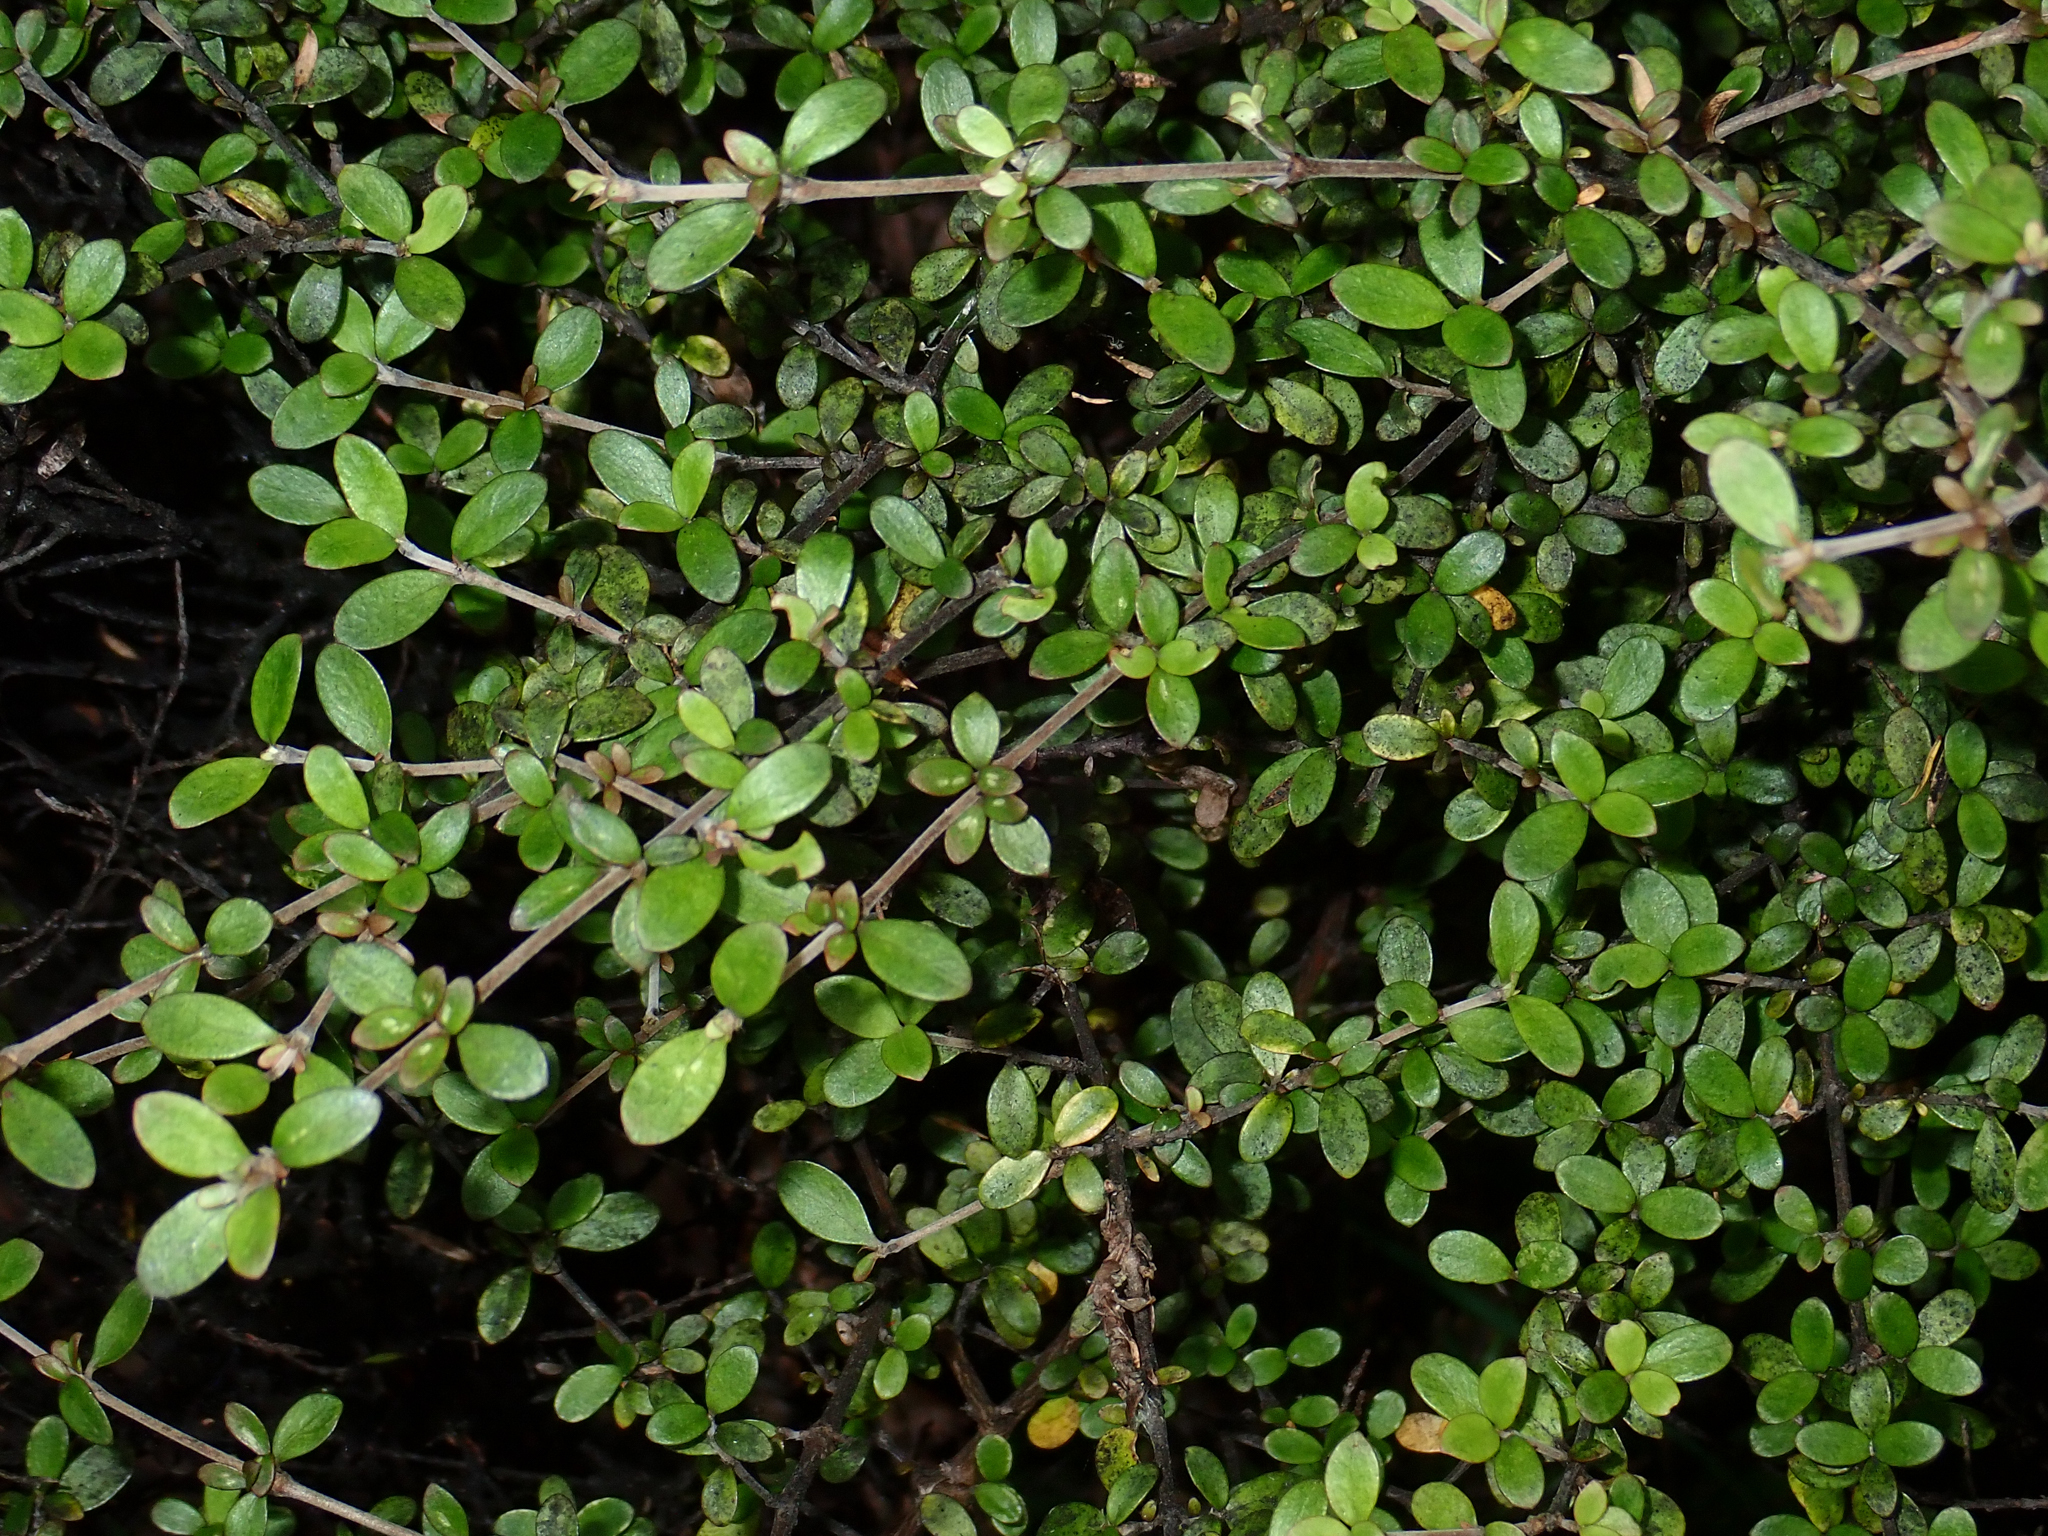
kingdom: Plantae
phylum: Tracheophyta
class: Magnoliopsida
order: Gentianales
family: Rubiaceae
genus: Coprosma
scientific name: Coprosma dumosa
